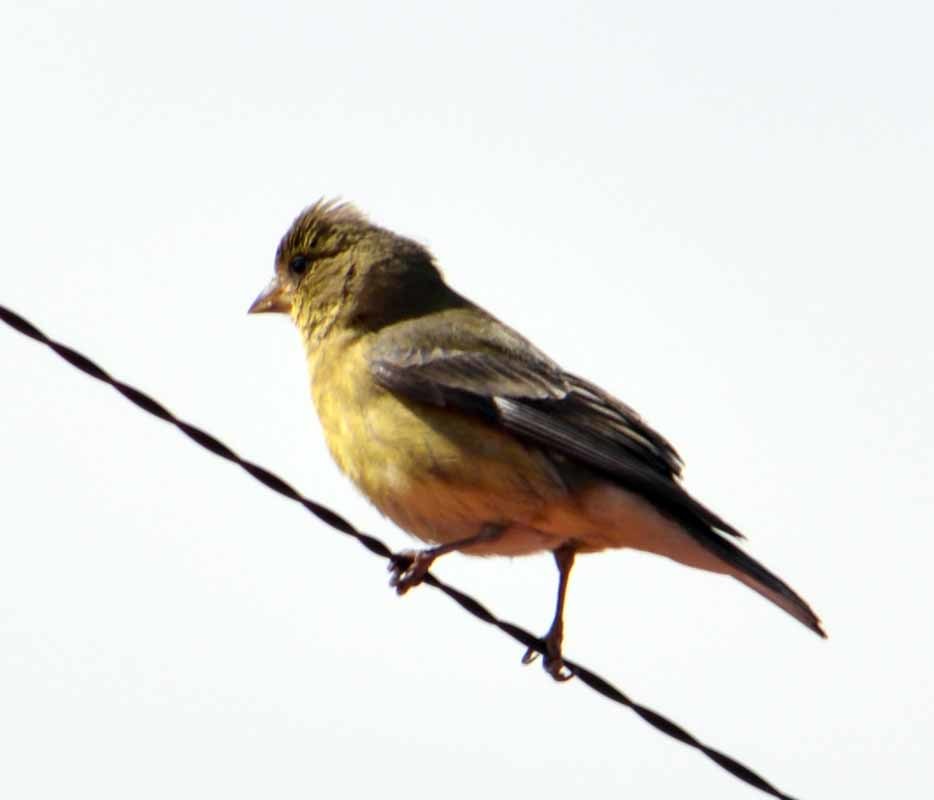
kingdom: Animalia
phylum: Chordata
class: Aves
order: Passeriformes
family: Fringillidae
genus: Spinus
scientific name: Spinus psaltria
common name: Lesser goldfinch
